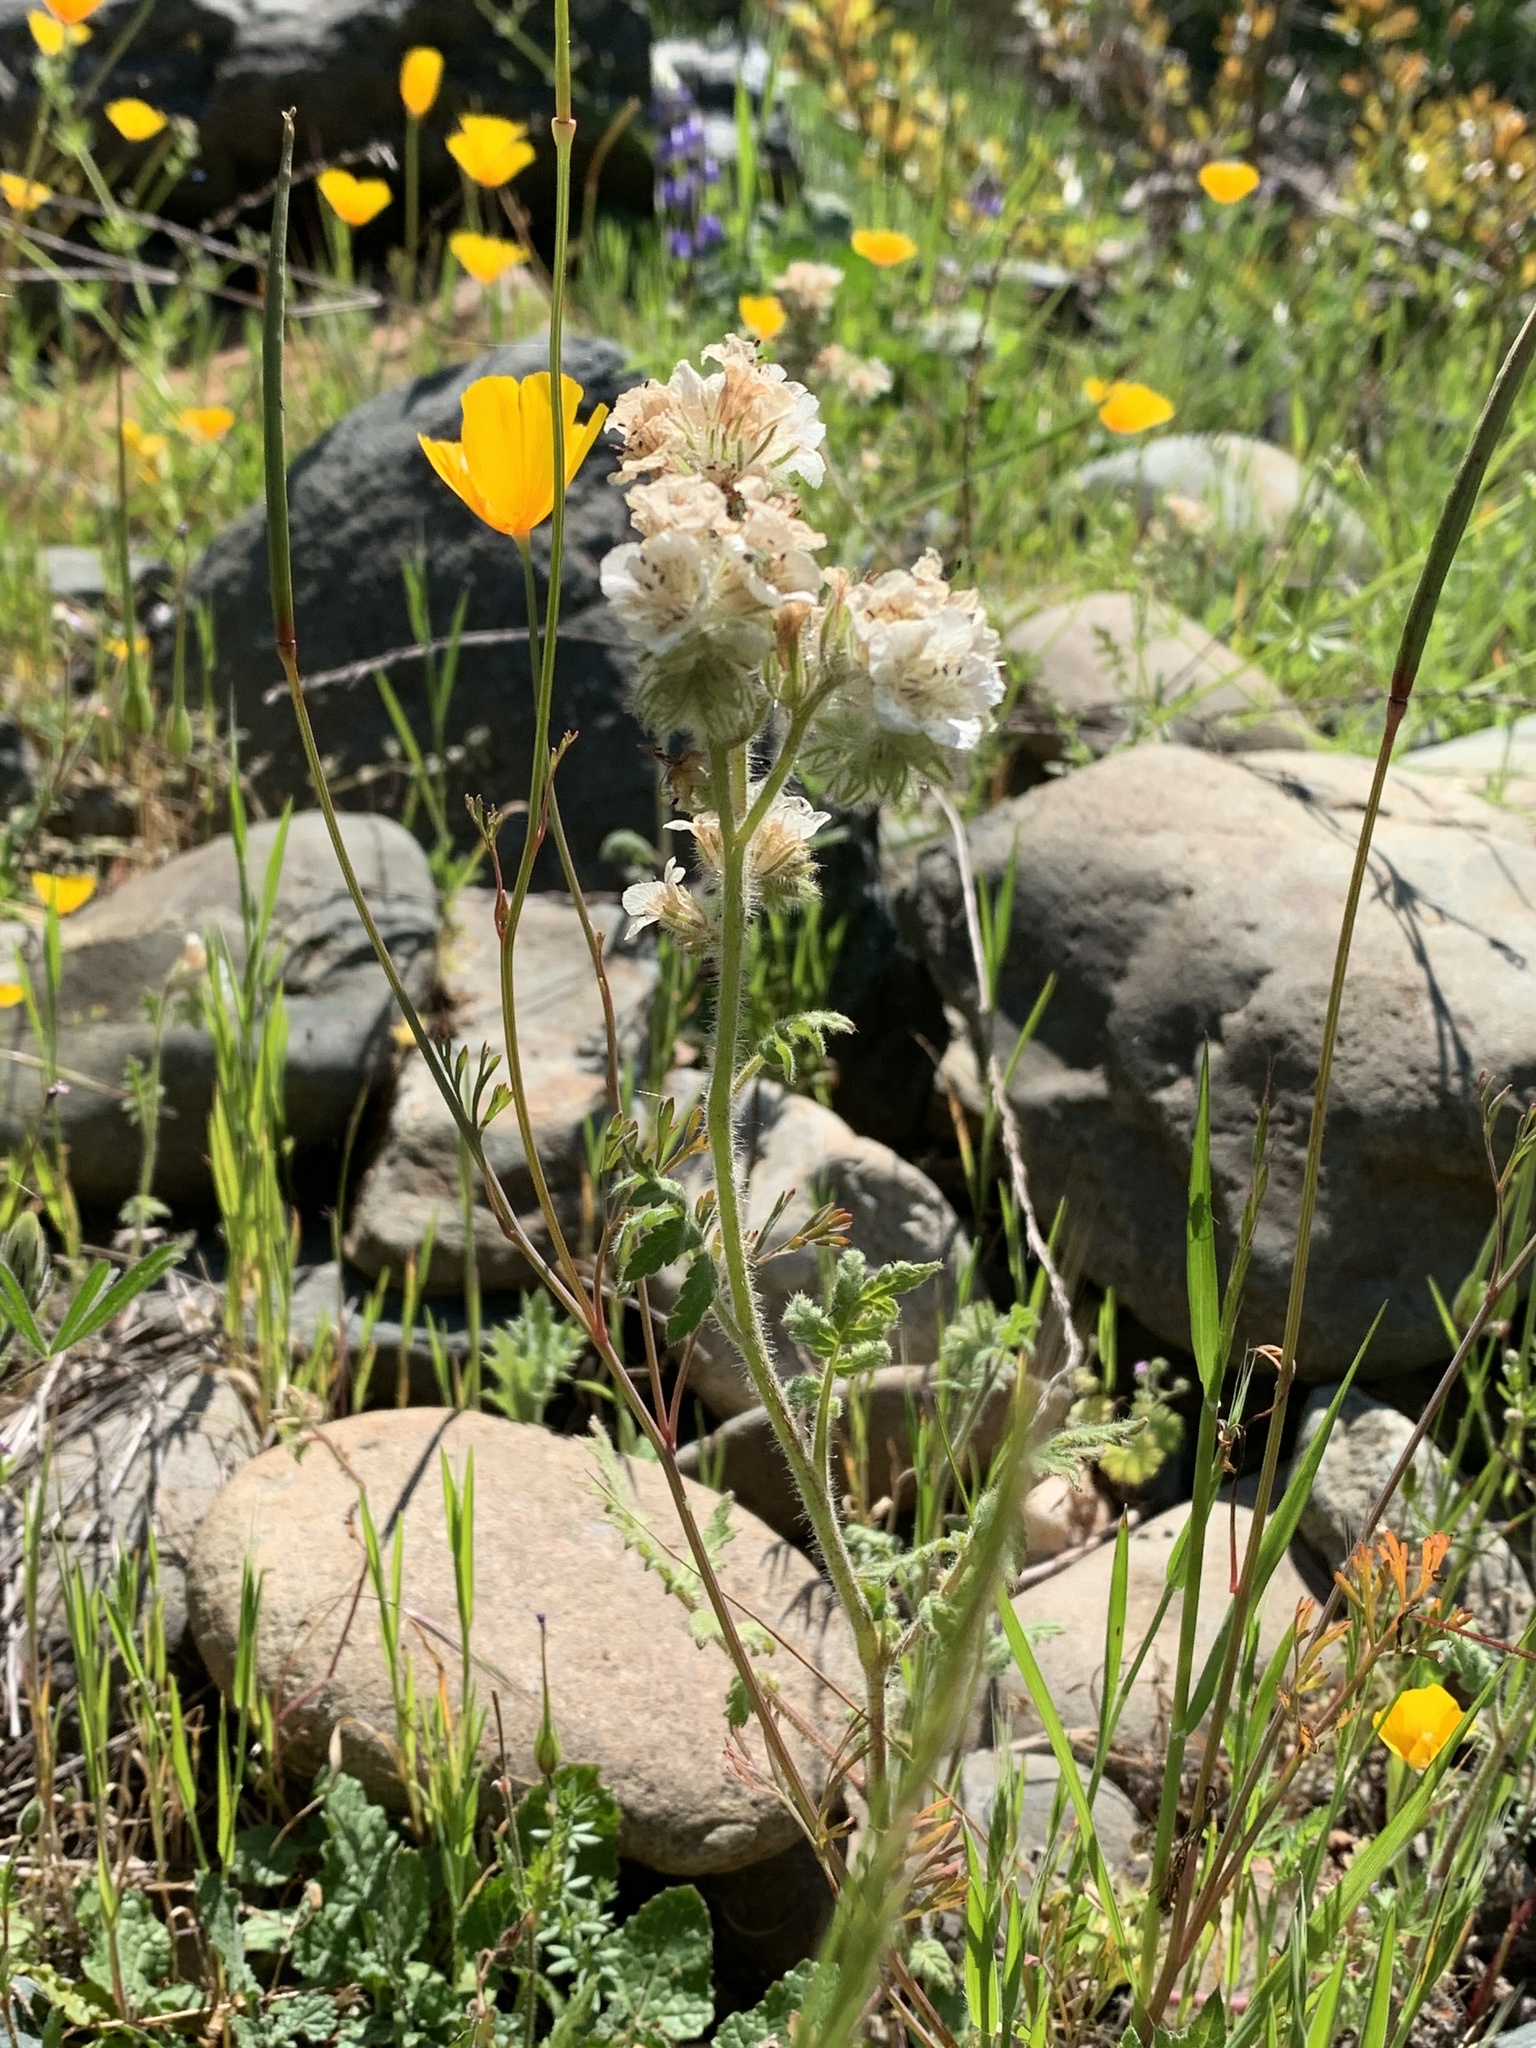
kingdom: Plantae
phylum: Tracheophyta
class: Magnoliopsida
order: Boraginales
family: Hydrophyllaceae
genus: Phacelia
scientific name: Phacelia cicutaria
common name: Caterpillar phacelia
